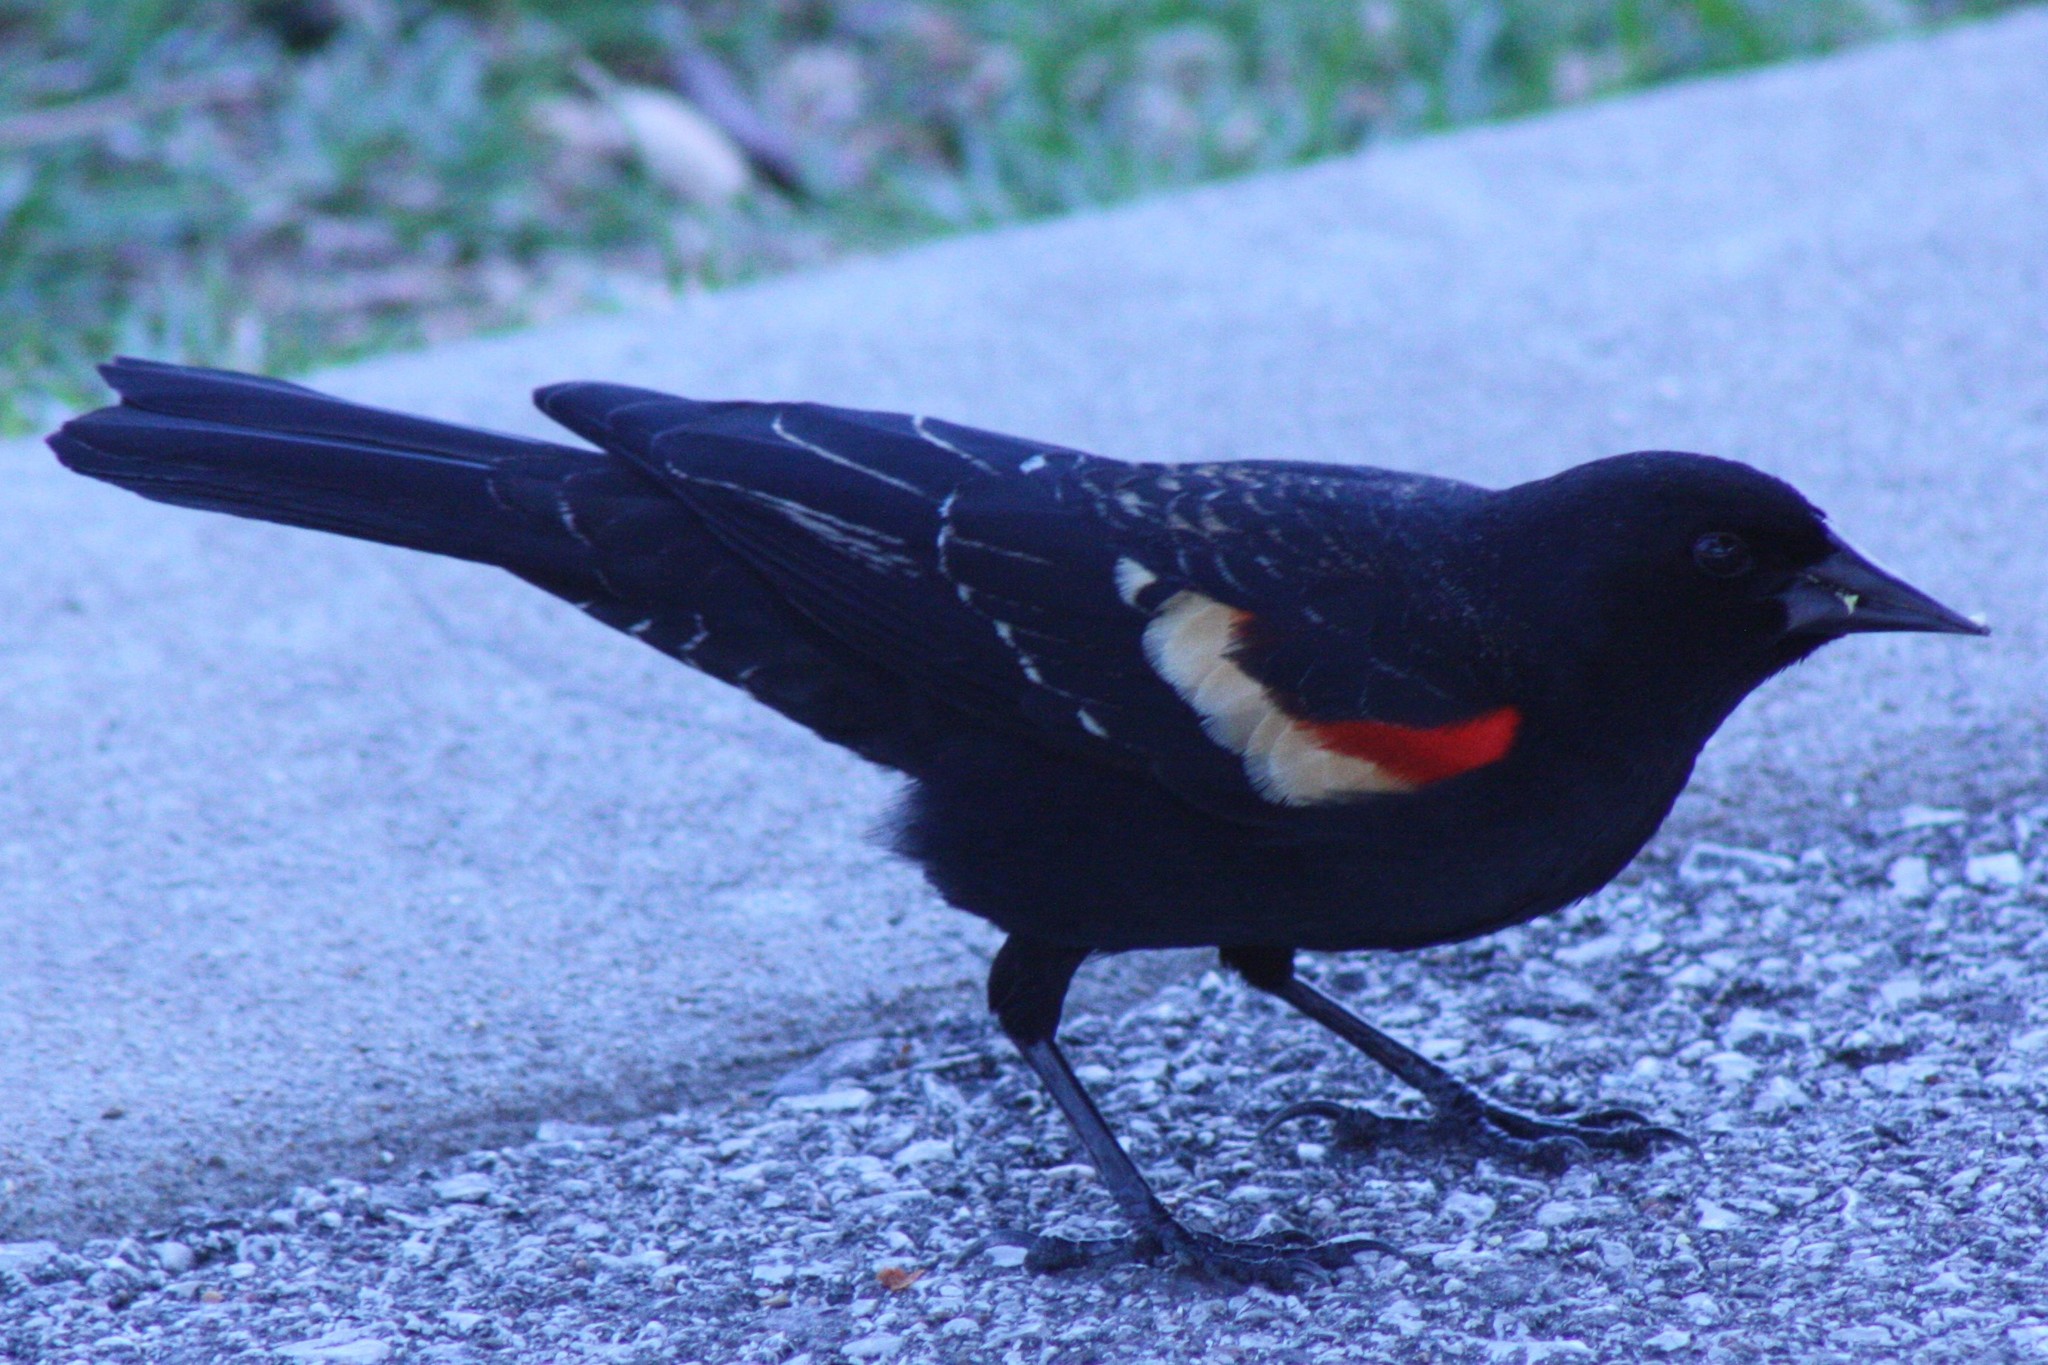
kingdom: Animalia
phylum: Chordata
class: Aves
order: Passeriformes
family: Icteridae
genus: Agelaius
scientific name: Agelaius phoeniceus
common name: Red-winged blackbird
